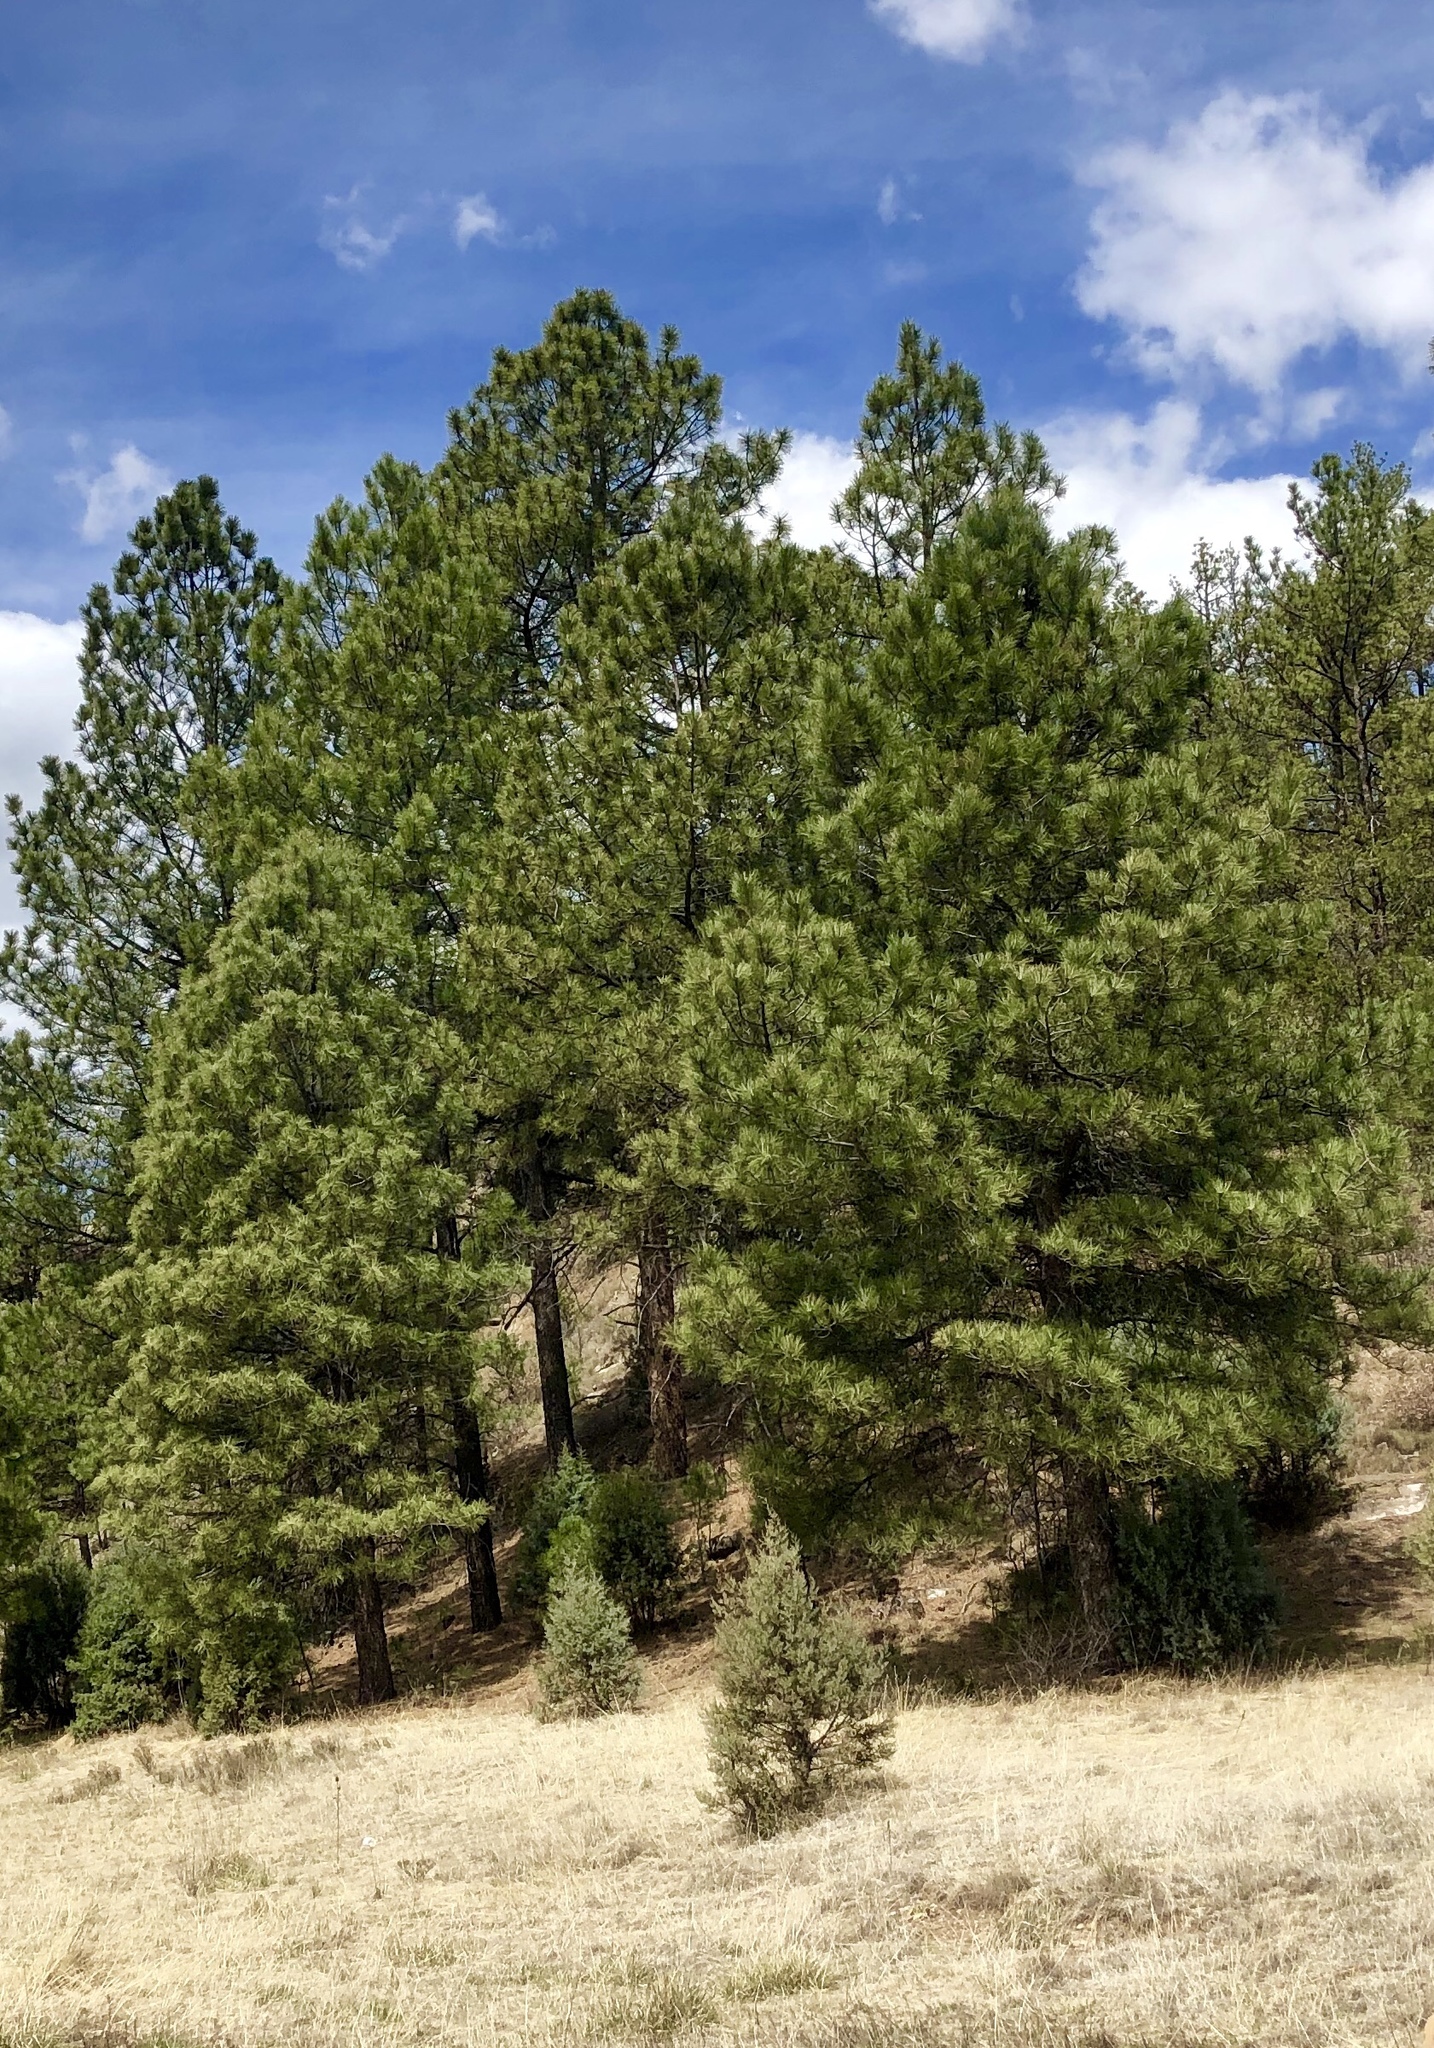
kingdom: Plantae
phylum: Tracheophyta
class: Pinopsida
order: Pinales
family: Pinaceae
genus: Pinus
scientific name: Pinus ponderosa
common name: Western yellow-pine
